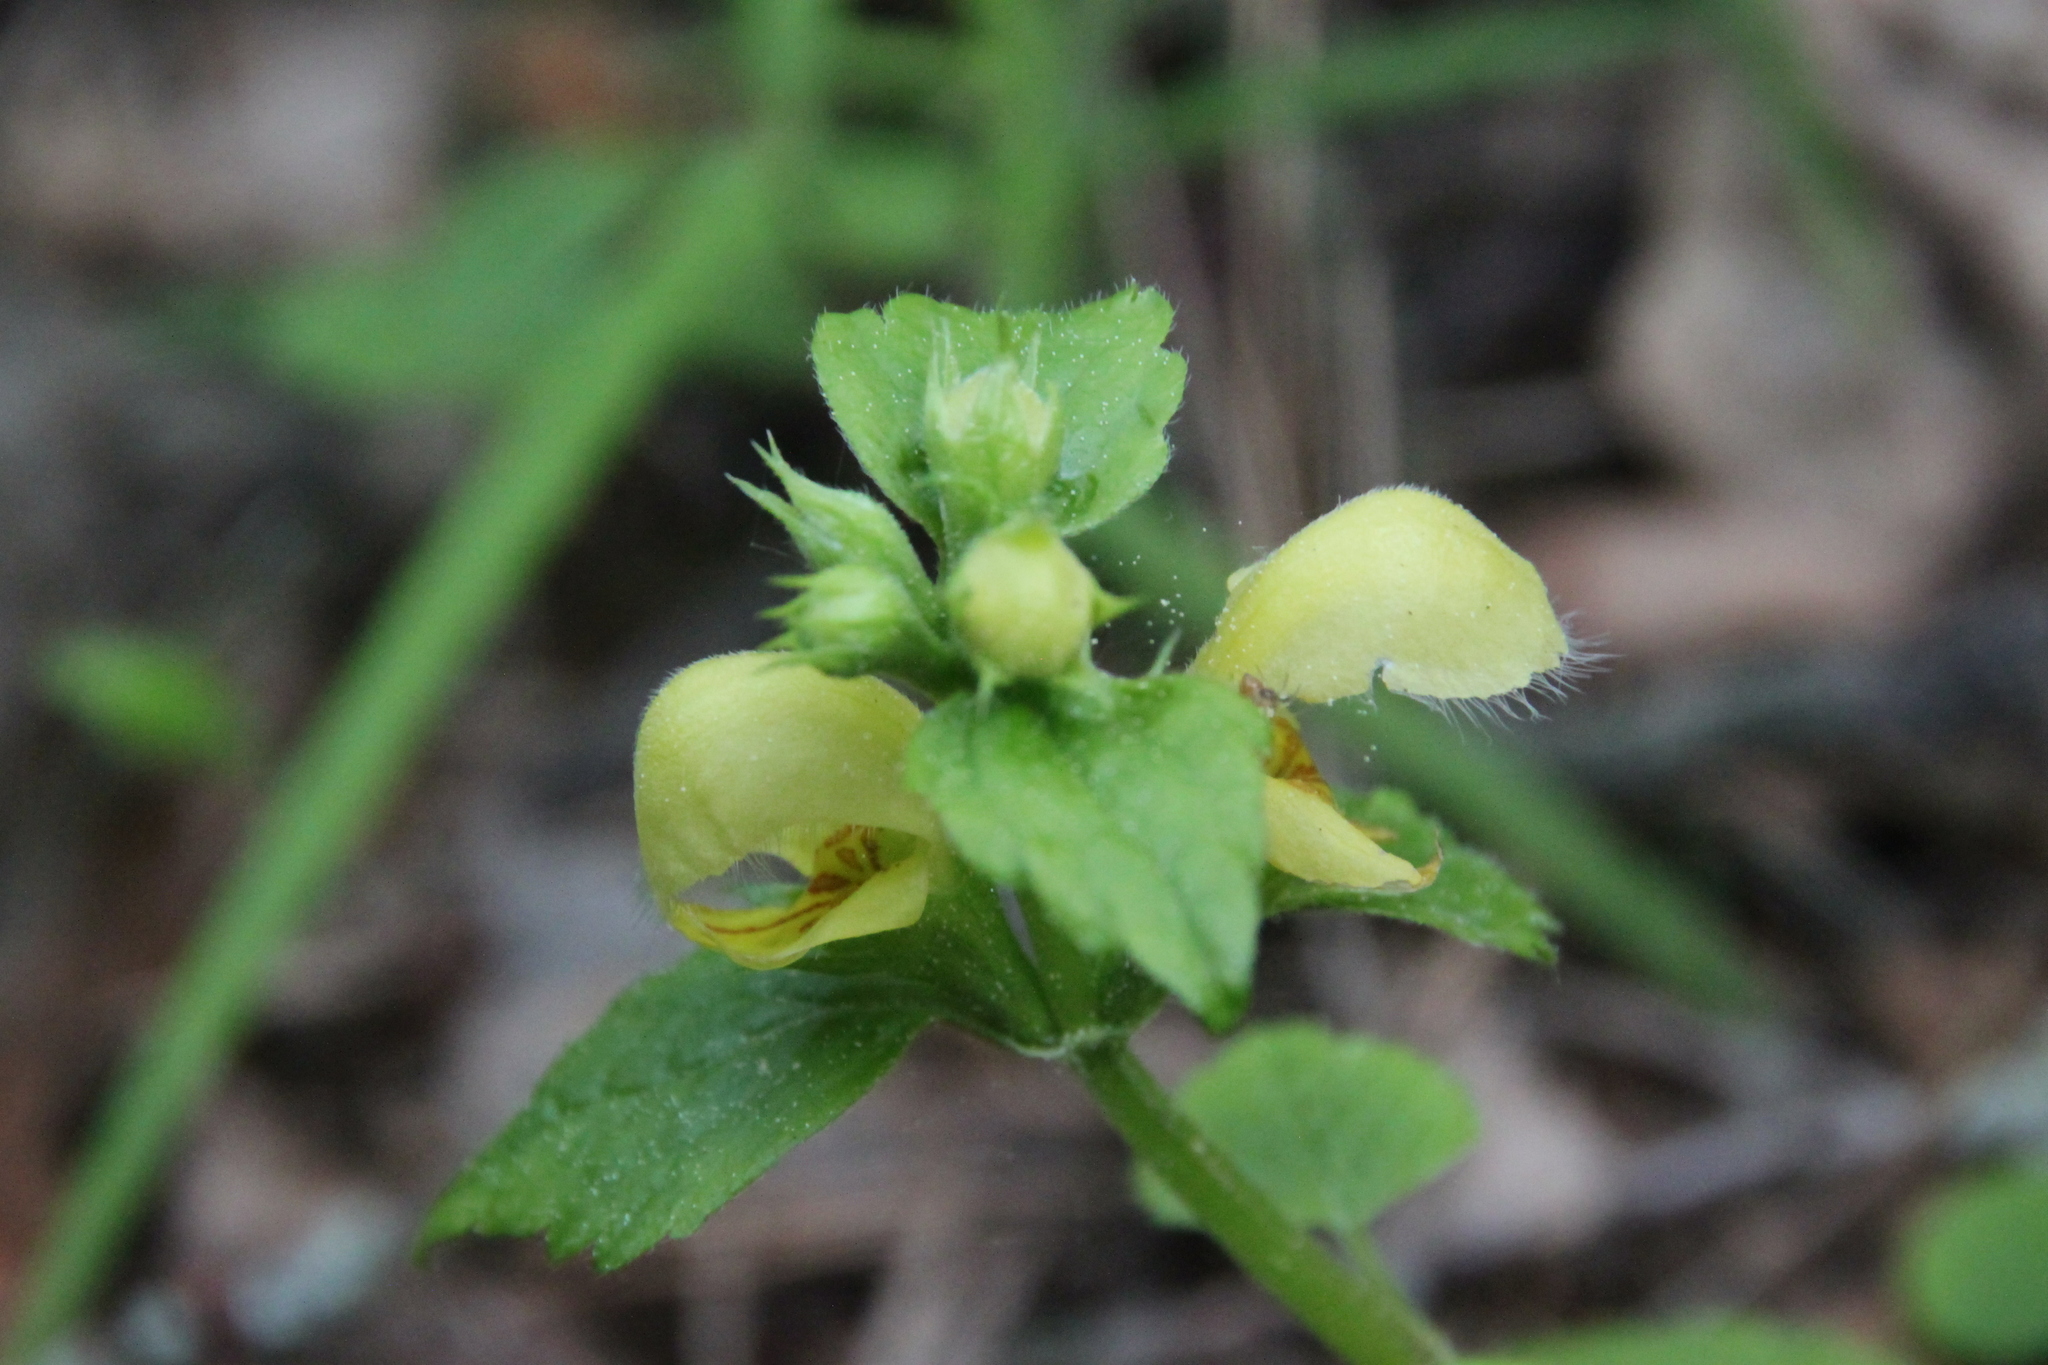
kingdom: Plantae
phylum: Tracheophyta
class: Magnoliopsida
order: Lamiales
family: Lamiaceae
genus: Lamium
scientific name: Lamium galeobdolon
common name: Yellow archangel
